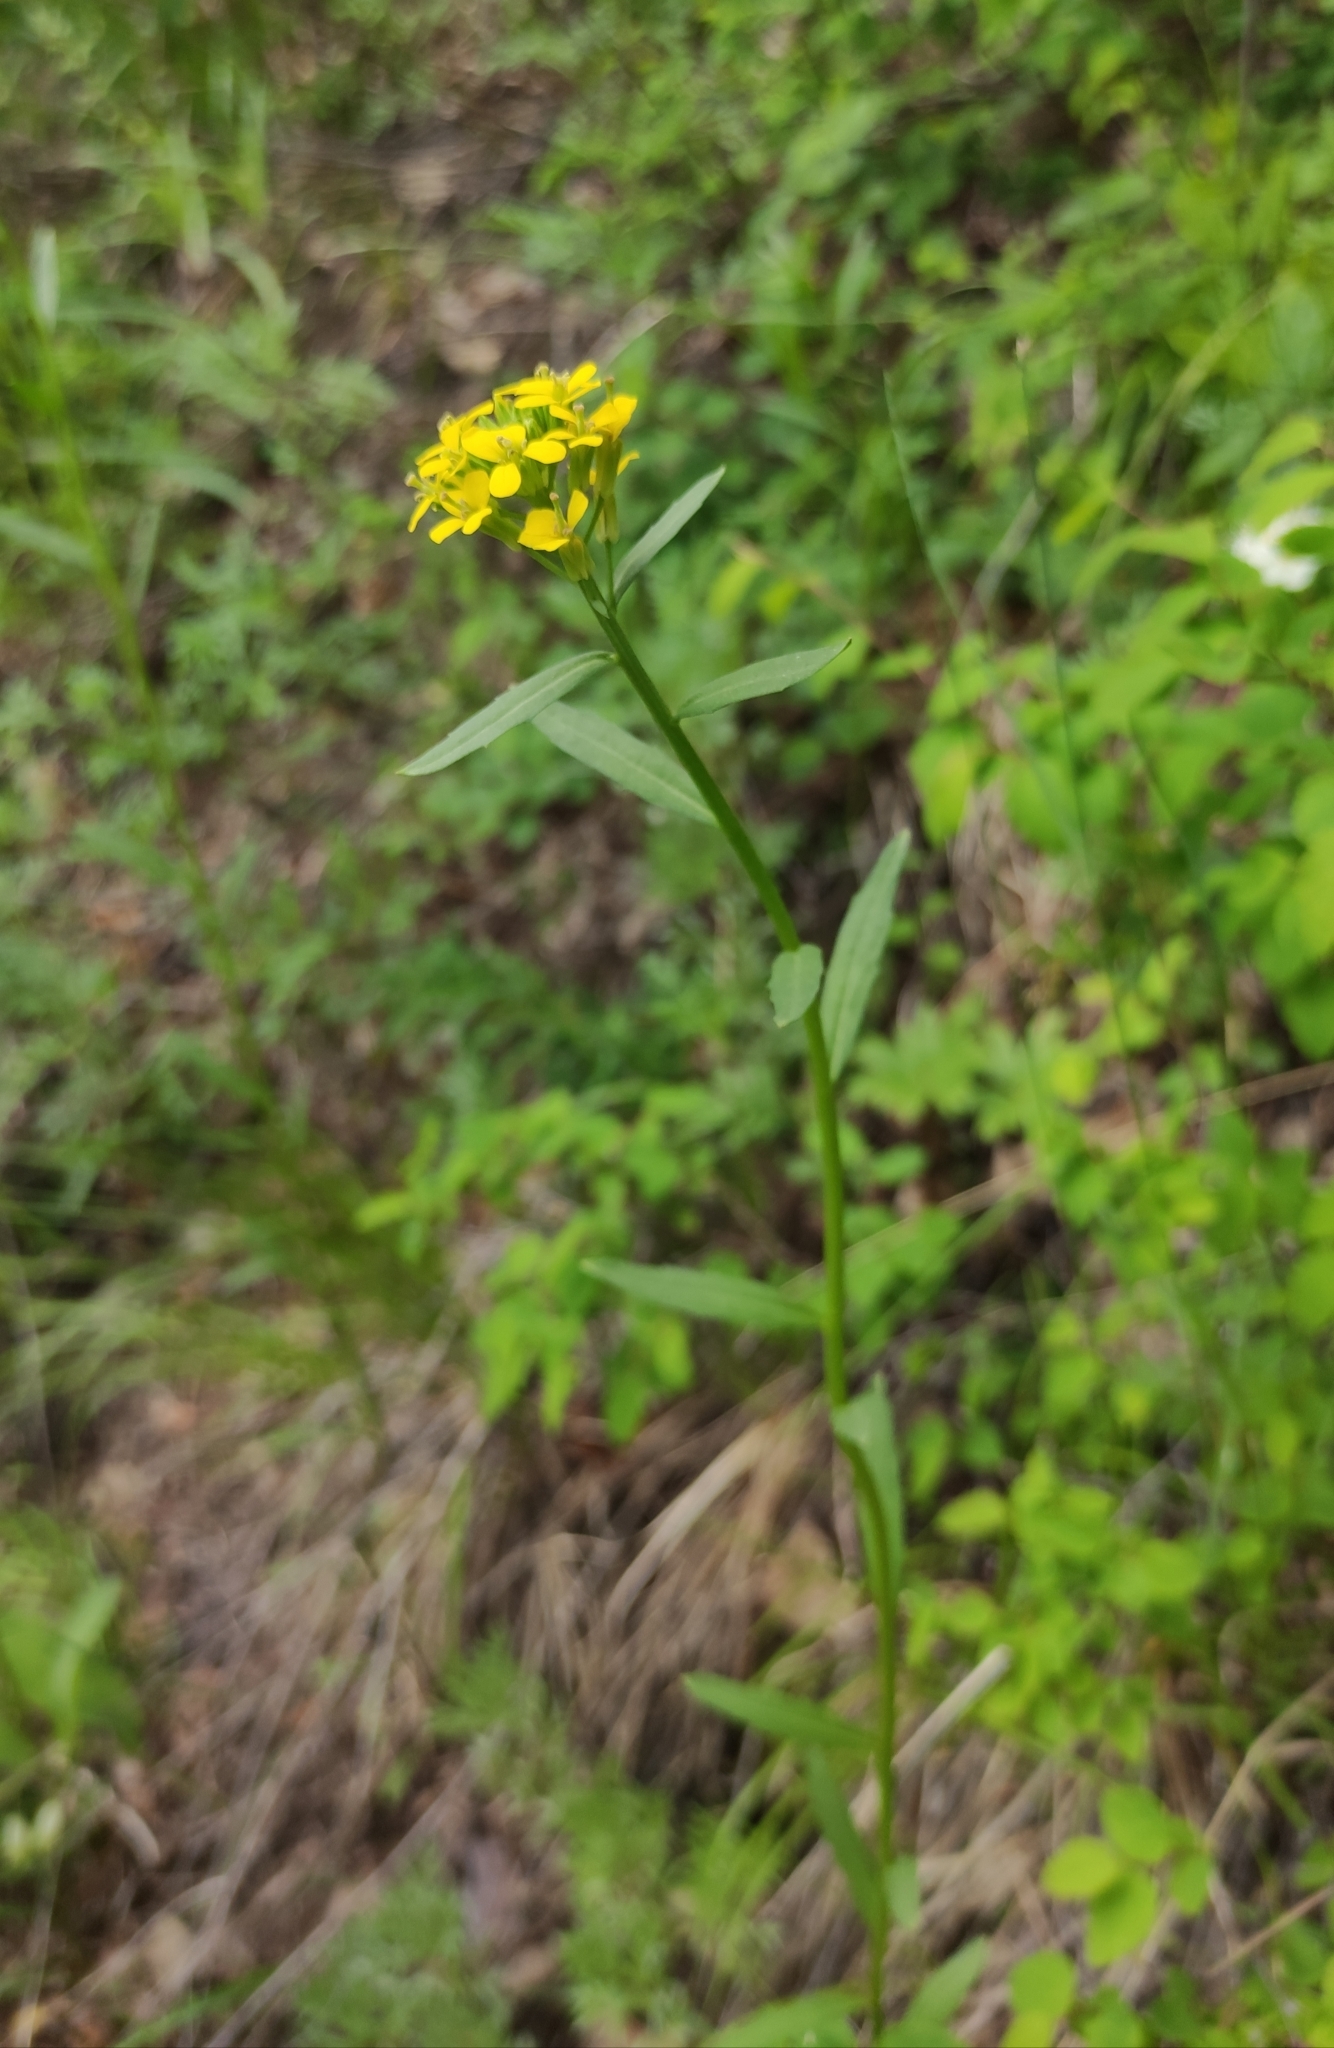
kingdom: Plantae
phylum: Tracheophyta
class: Magnoliopsida
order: Brassicales
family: Brassicaceae
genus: Erysimum
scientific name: Erysimum cheiranthoides
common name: Treacle mustard
